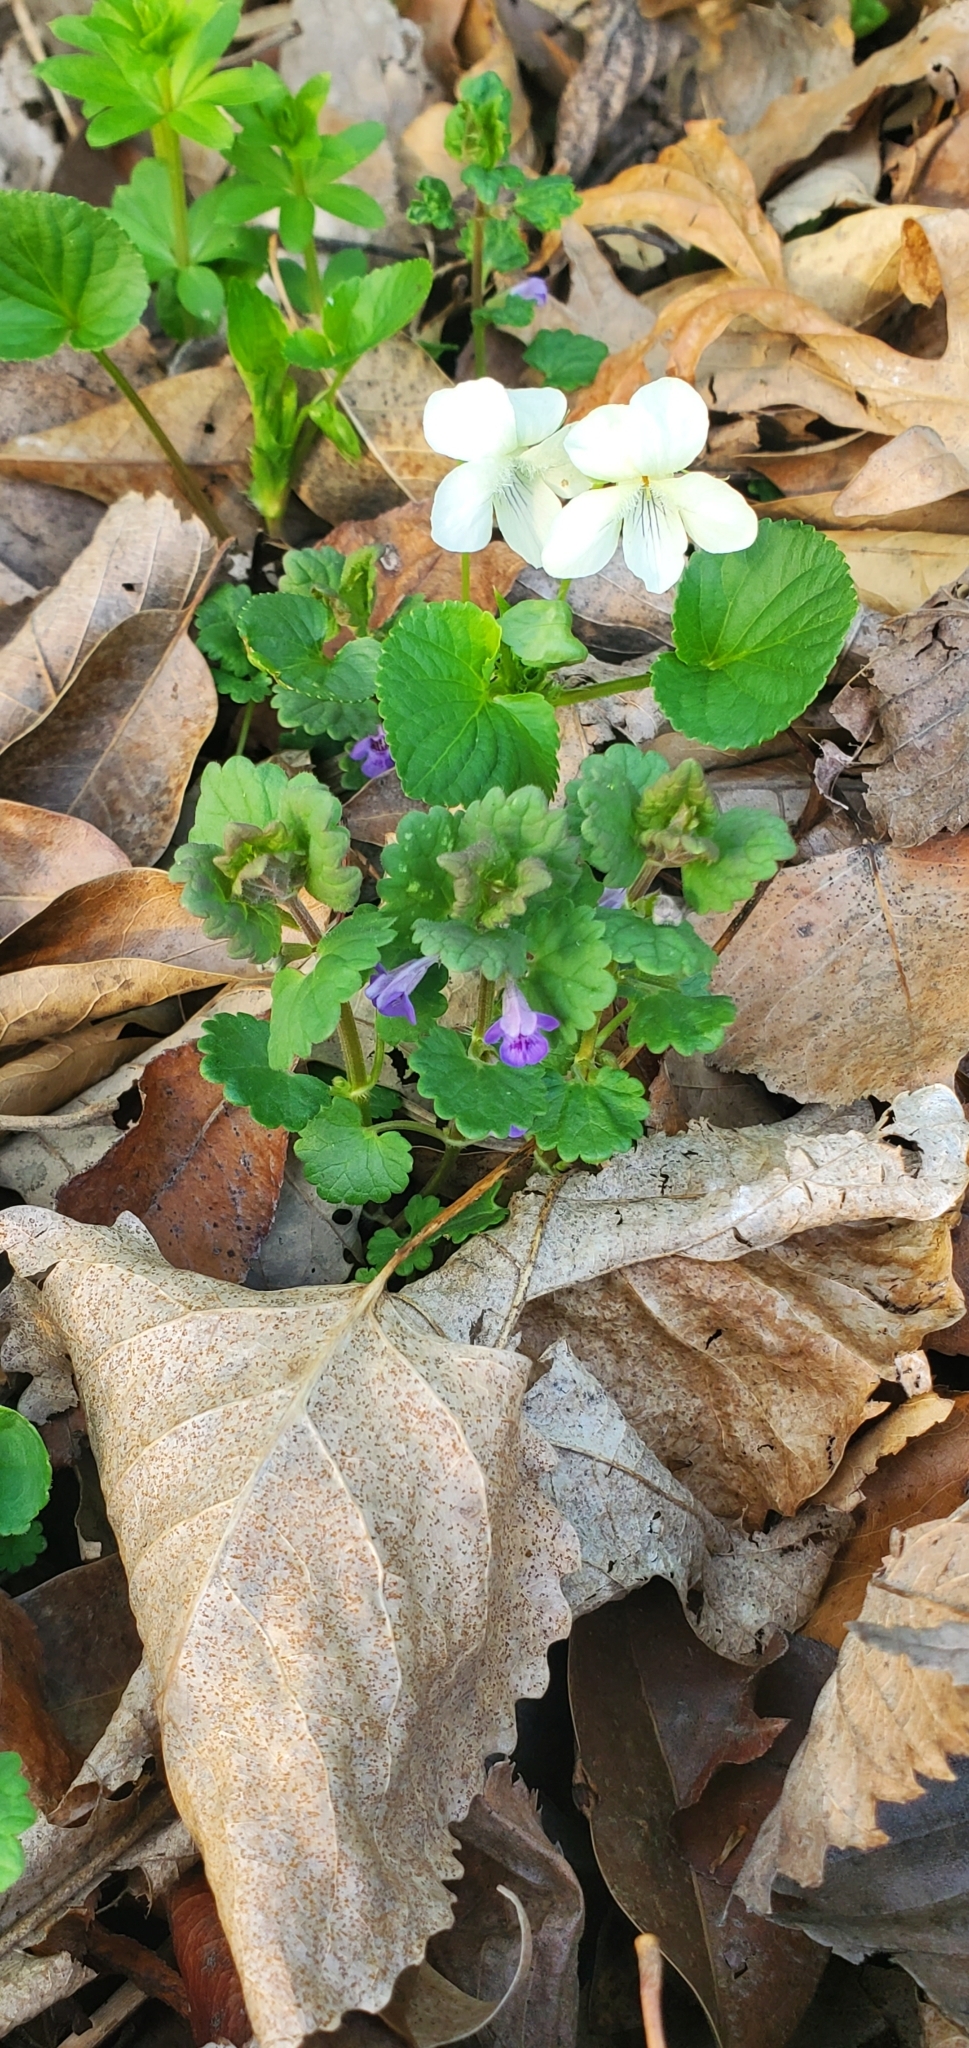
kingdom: Plantae
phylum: Tracheophyta
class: Magnoliopsida
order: Malpighiales
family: Violaceae
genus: Viola
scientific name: Viola striata
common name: Cream violet
